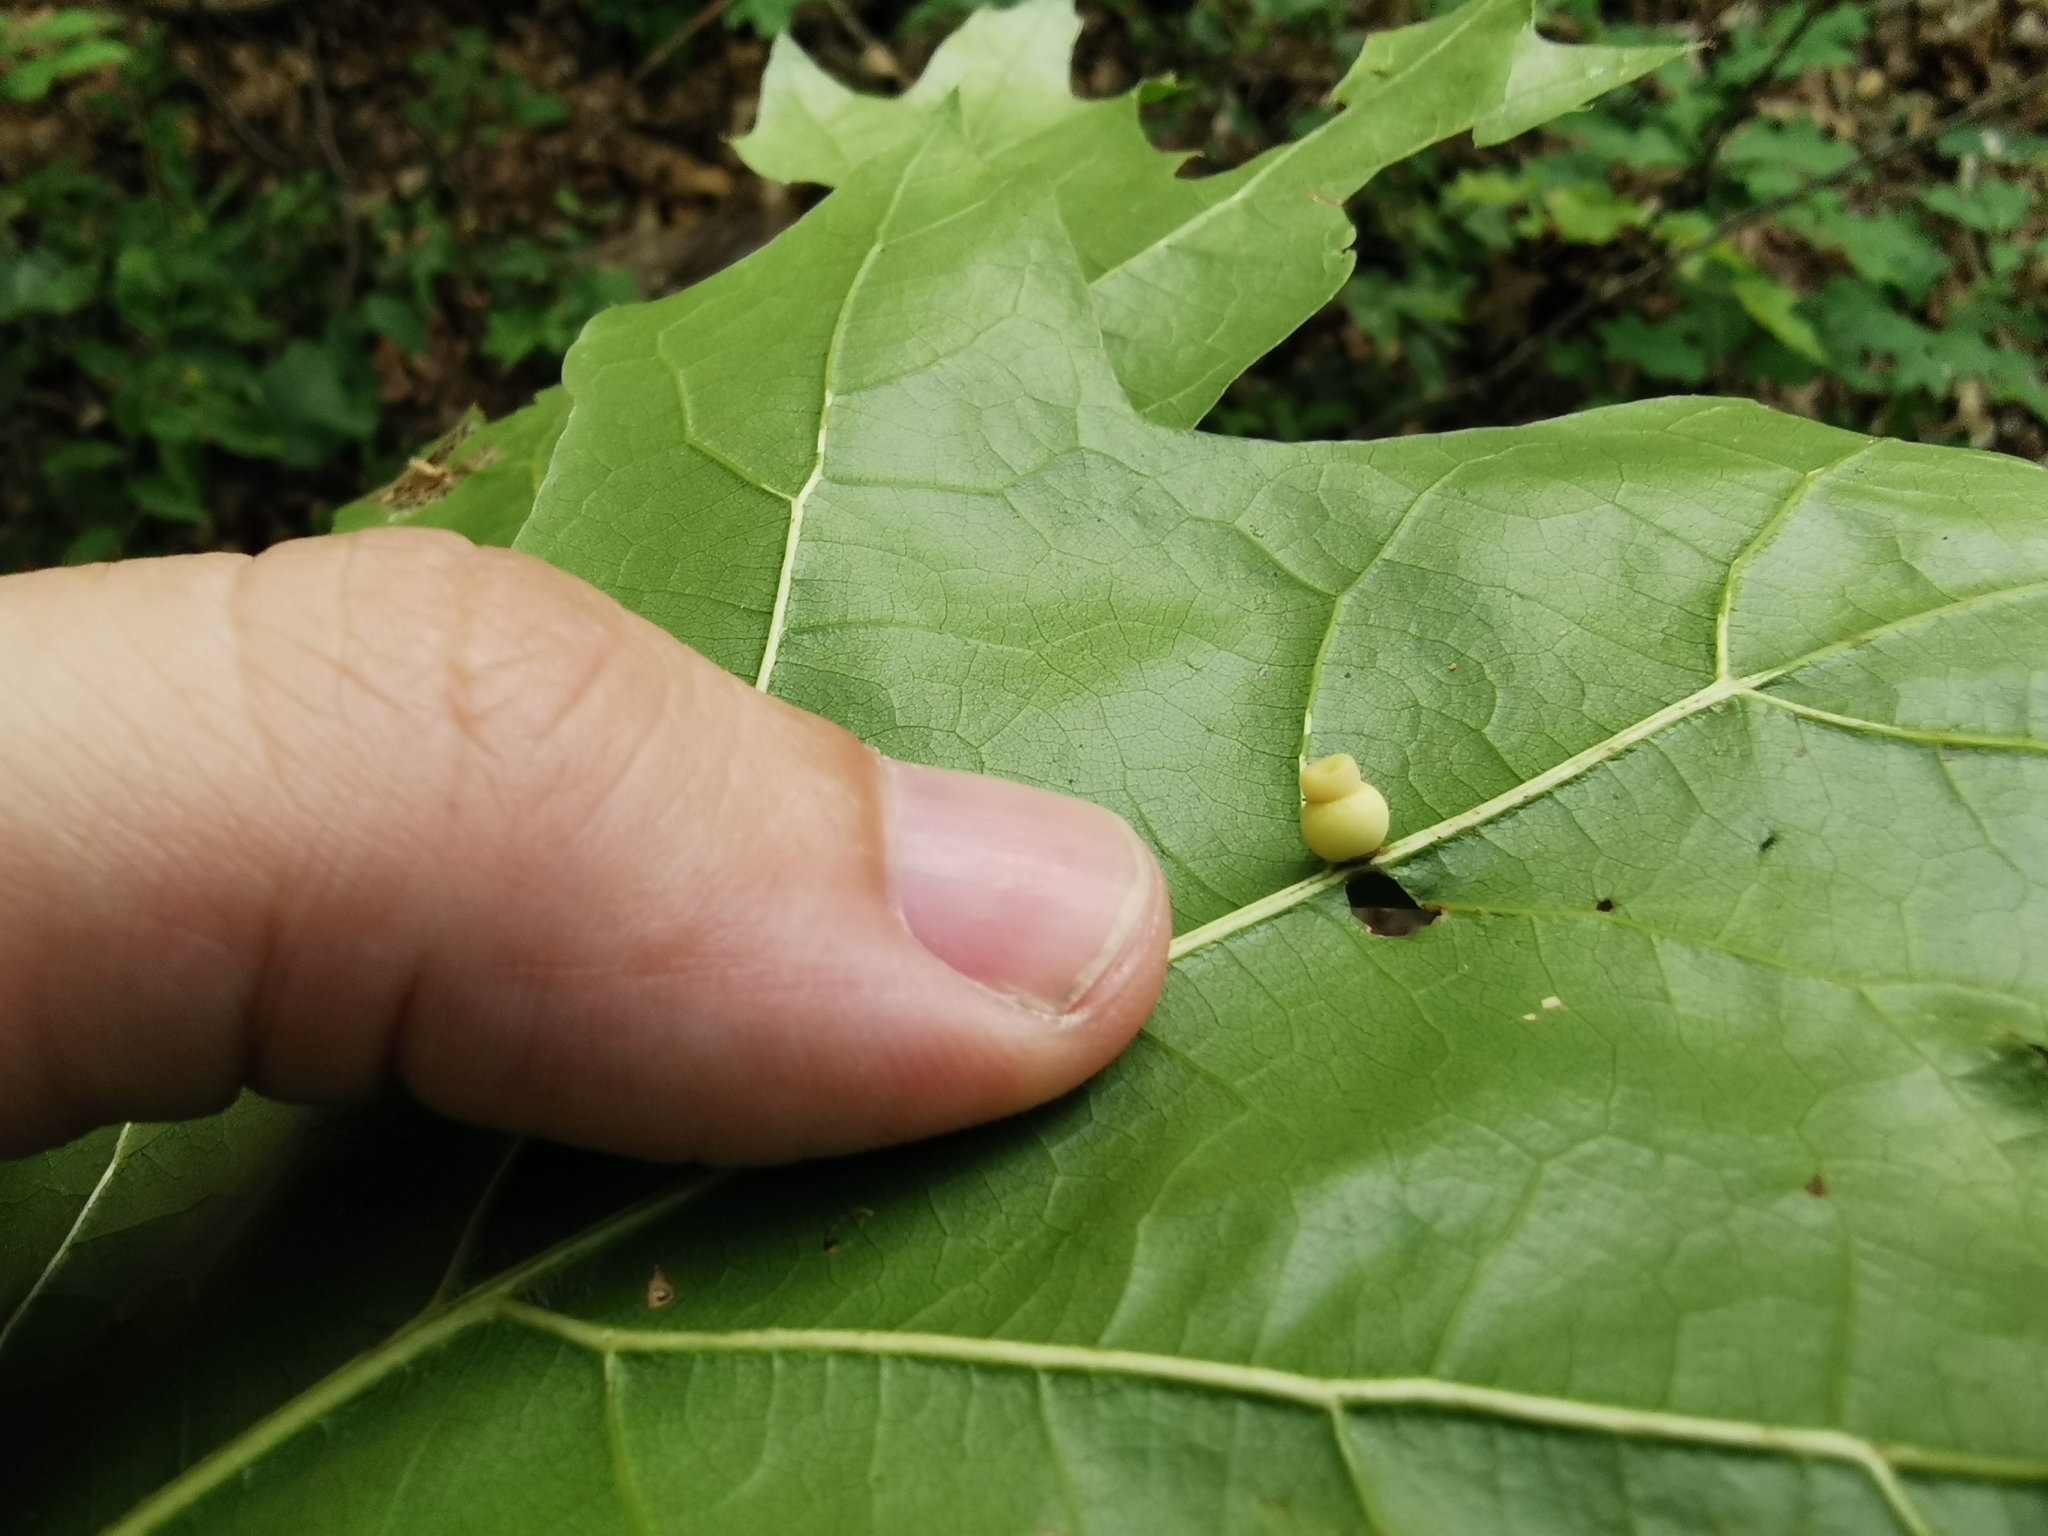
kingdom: Animalia
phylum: Arthropoda
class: Insecta
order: Hymenoptera
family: Cynipidae
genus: Kokkocynips
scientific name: Kokkocynips rileyi
